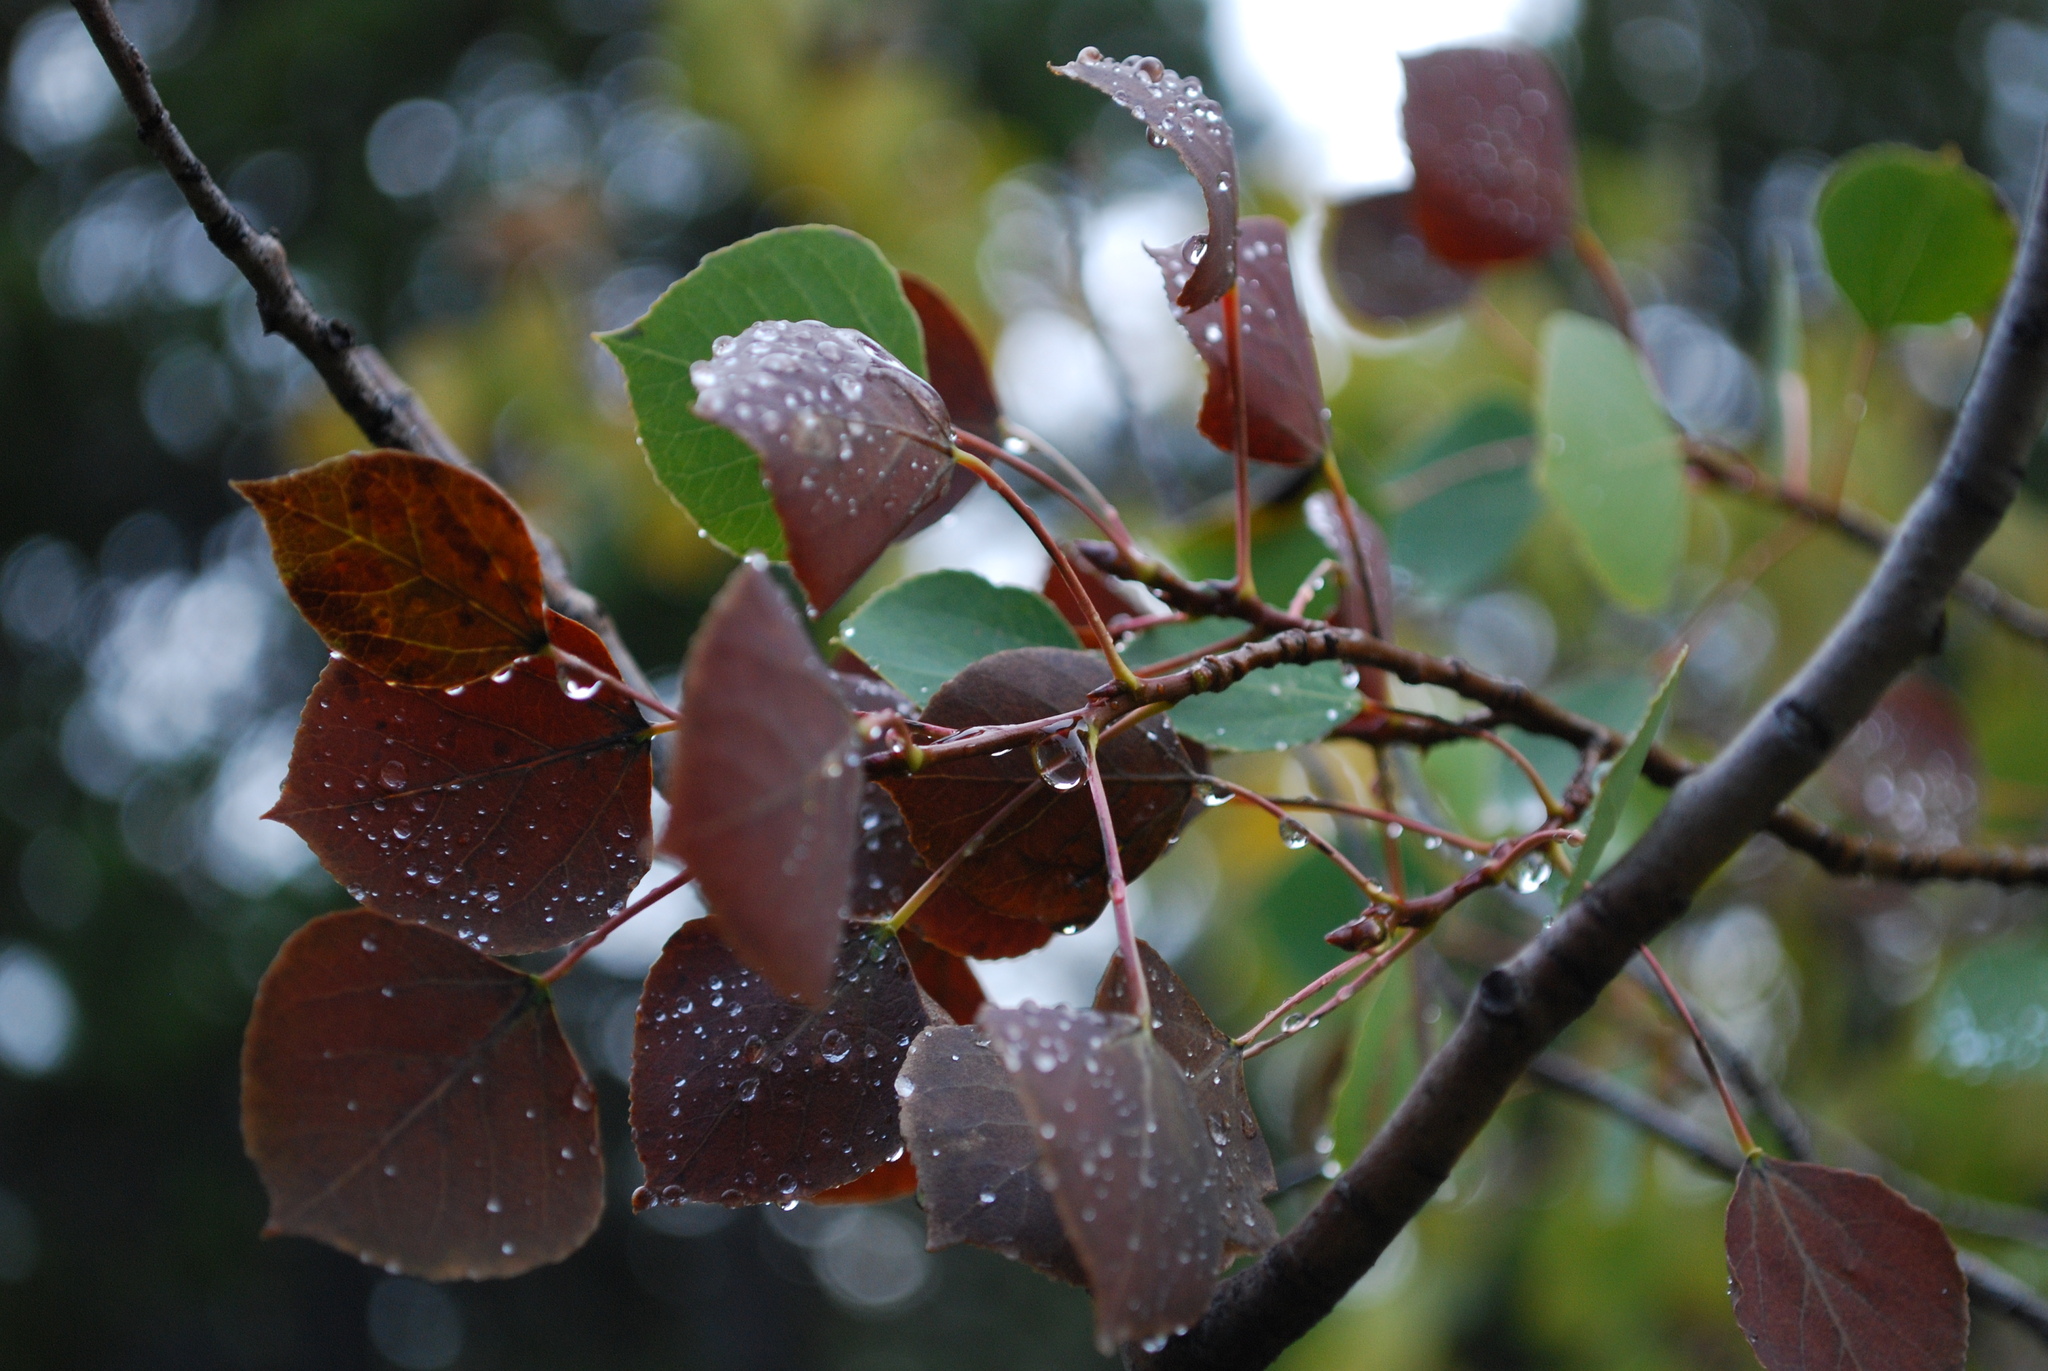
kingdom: Plantae
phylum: Tracheophyta
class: Magnoliopsida
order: Malpighiales
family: Salicaceae
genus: Populus
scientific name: Populus tremuloides
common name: Quaking aspen
